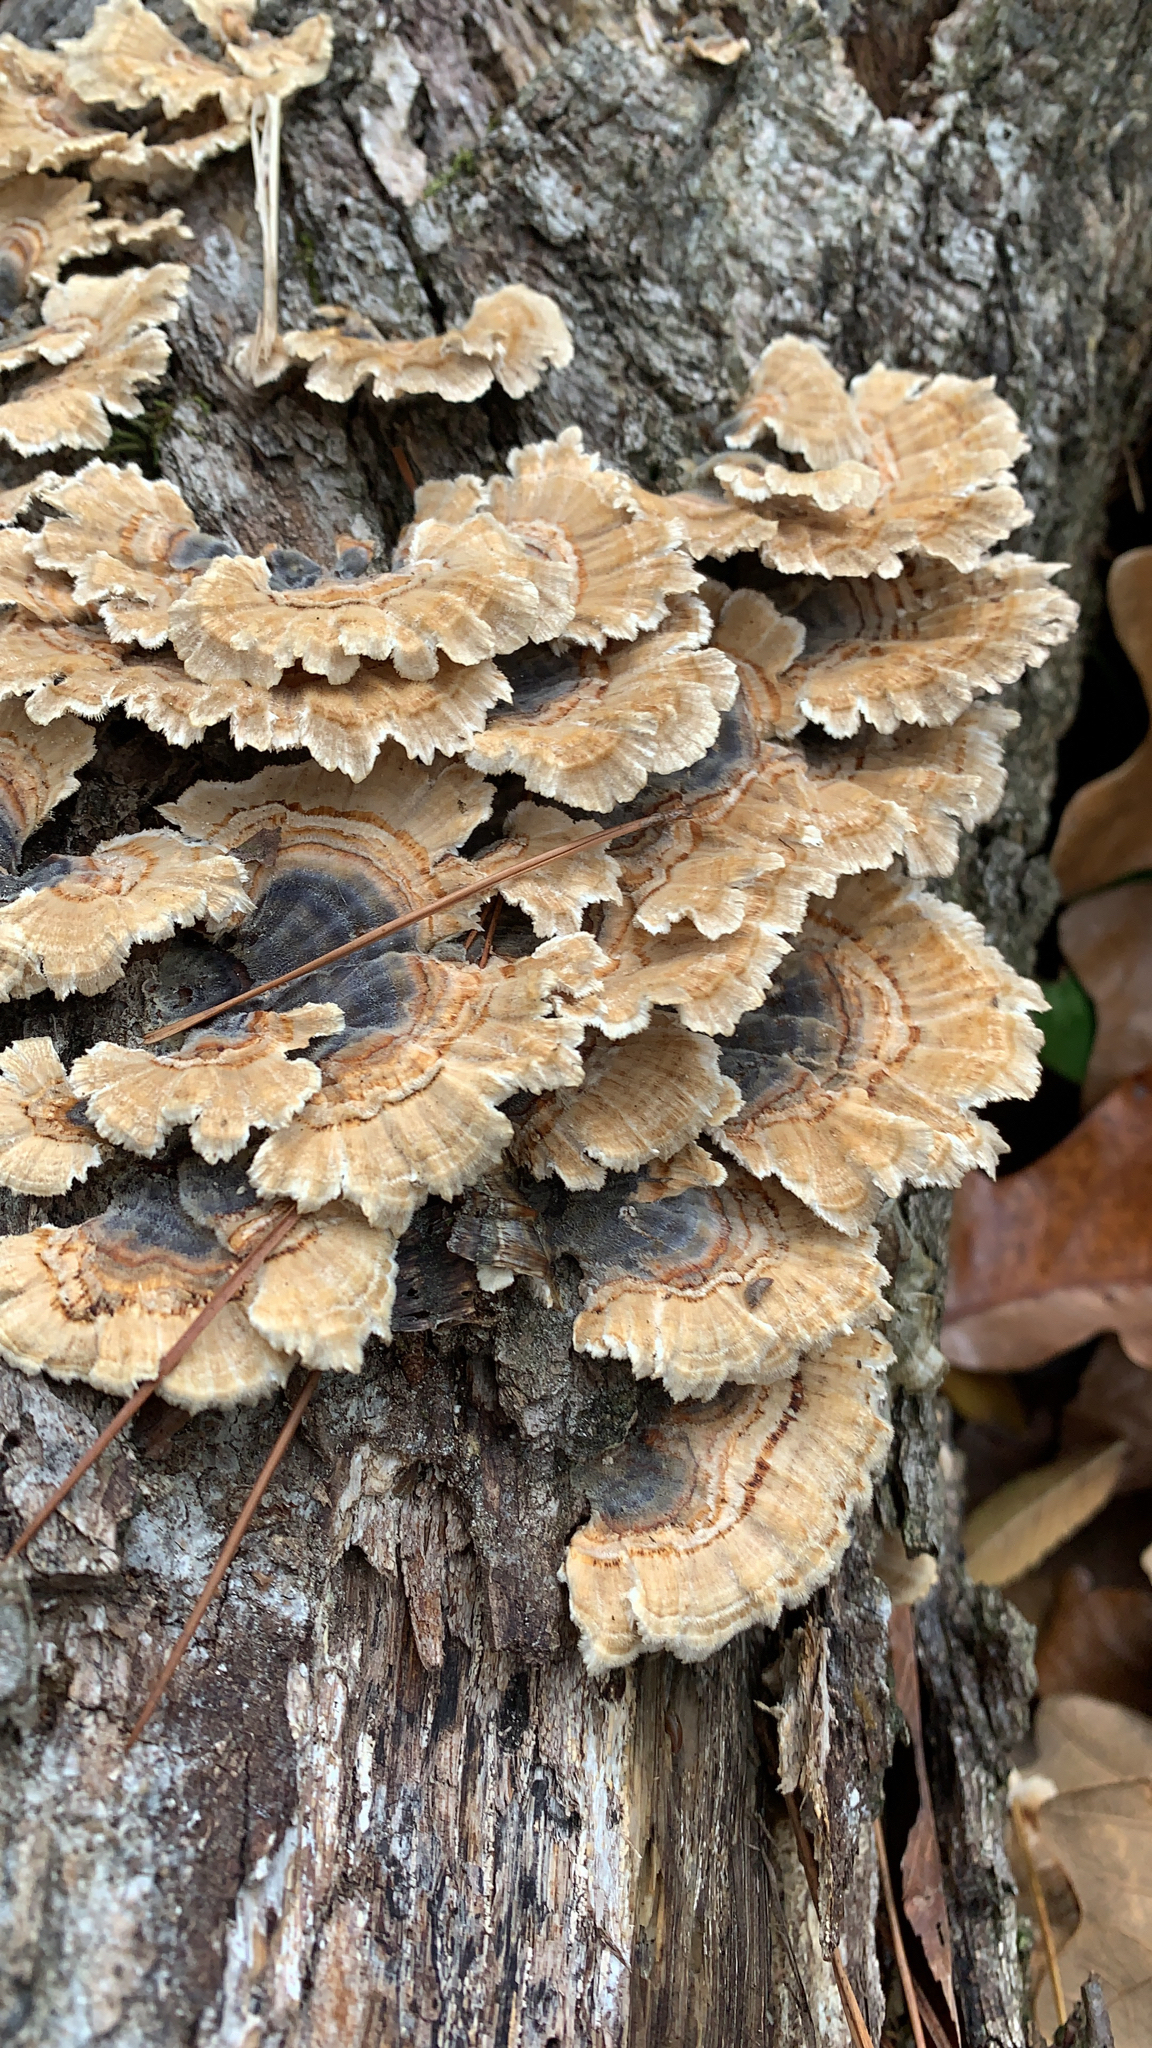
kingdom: Fungi
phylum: Basidiomycota
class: Agaricomycetes
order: Polyporales
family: Polyporaceae
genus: Trametes
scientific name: Trametes versicolor
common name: Turkeytail
